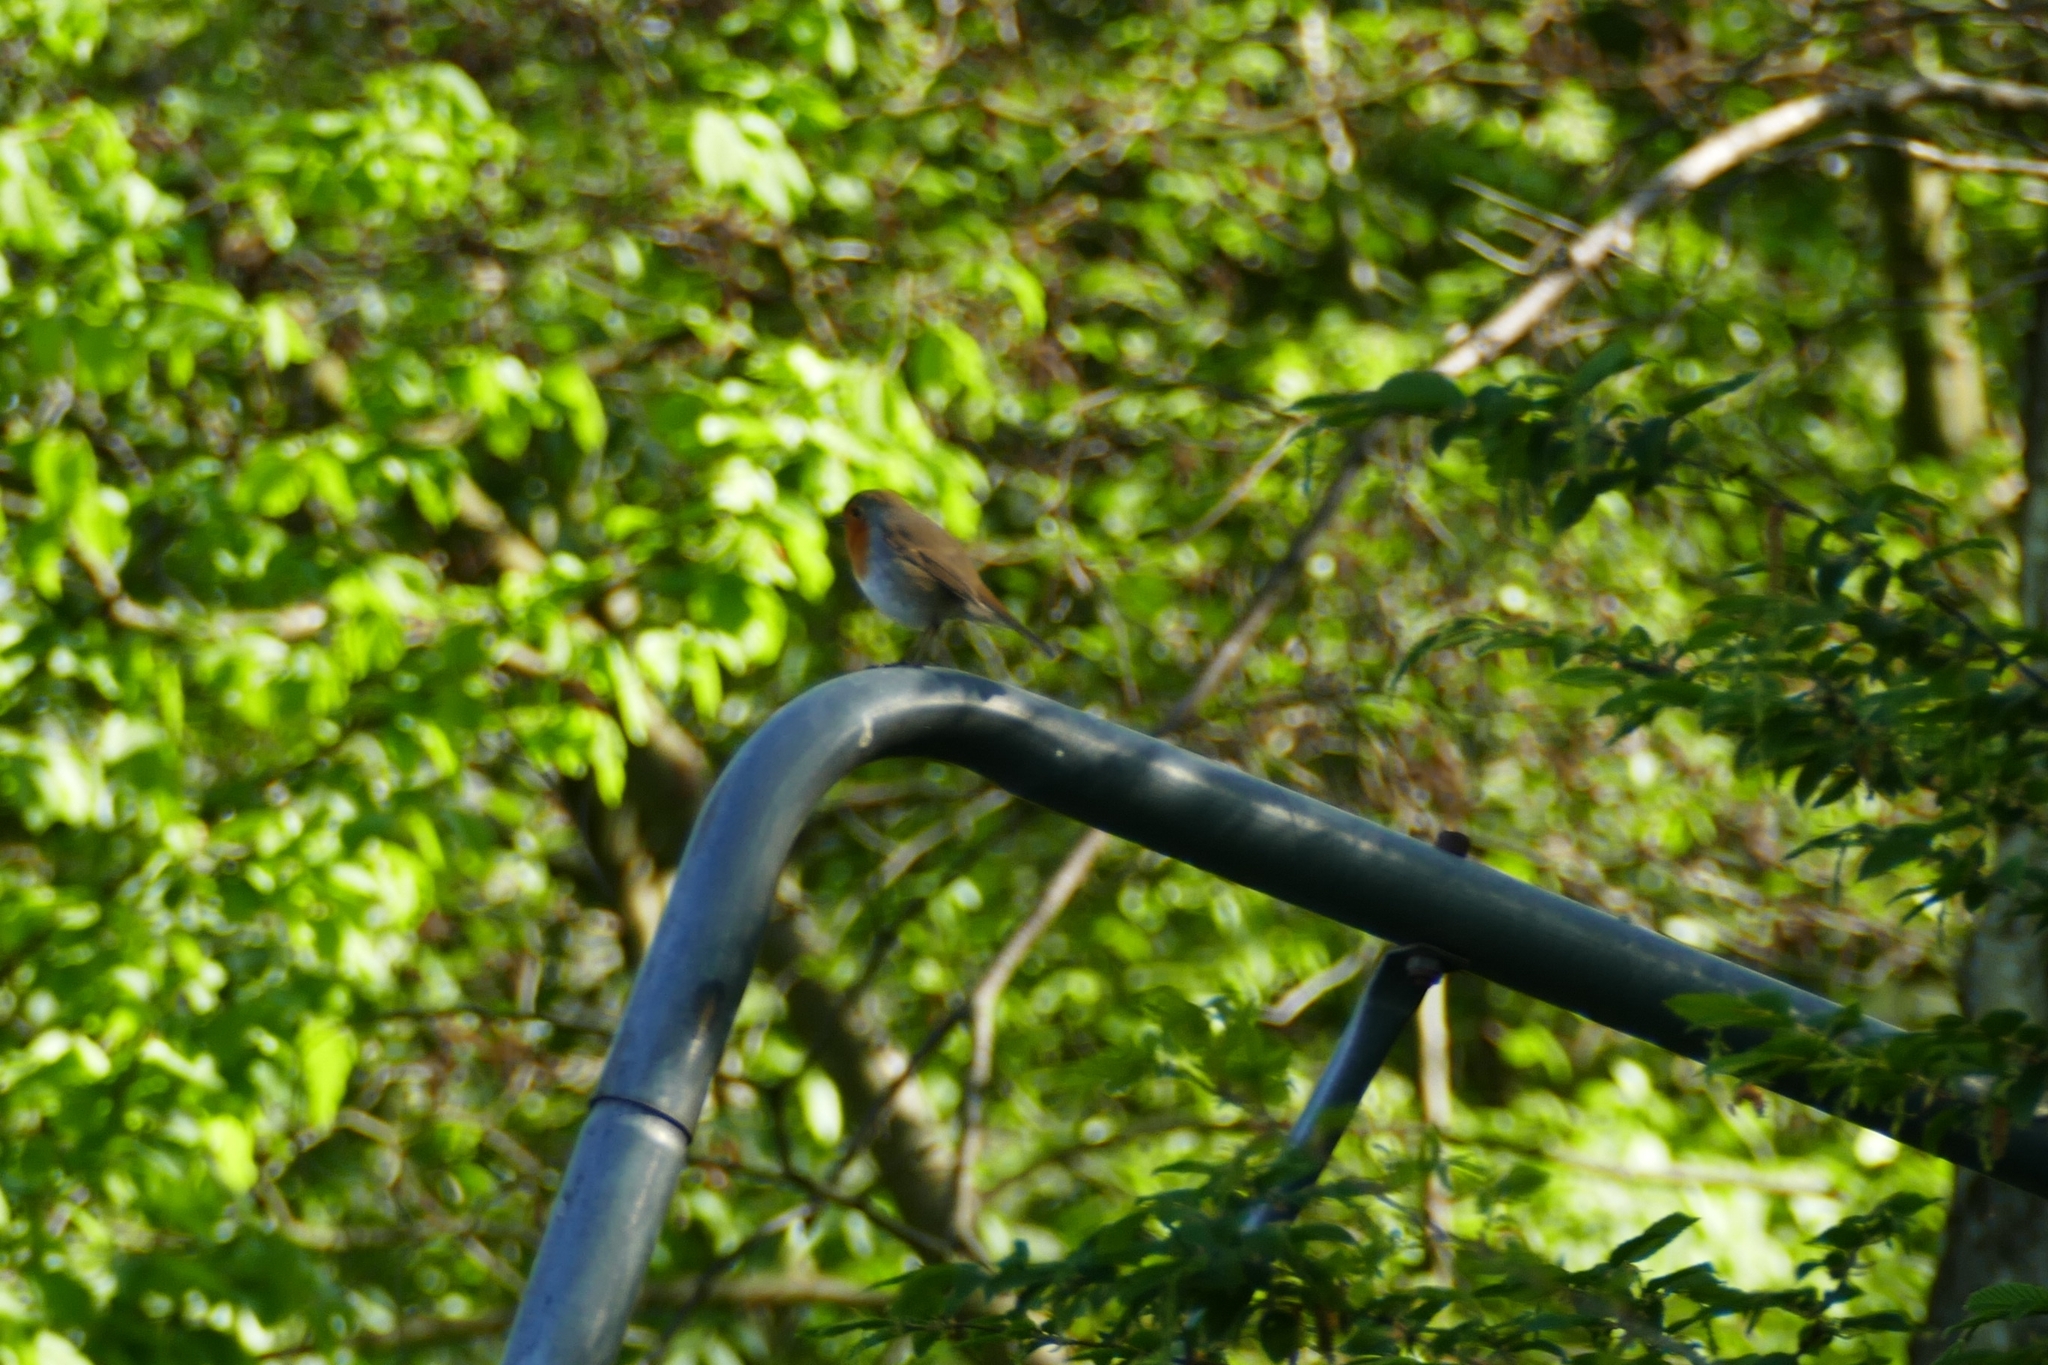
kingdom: Animalia
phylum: Chordata
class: Aves
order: Passeriformes
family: Muscicapidae
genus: Erithacus
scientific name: Erithacus rubecula
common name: European robin
